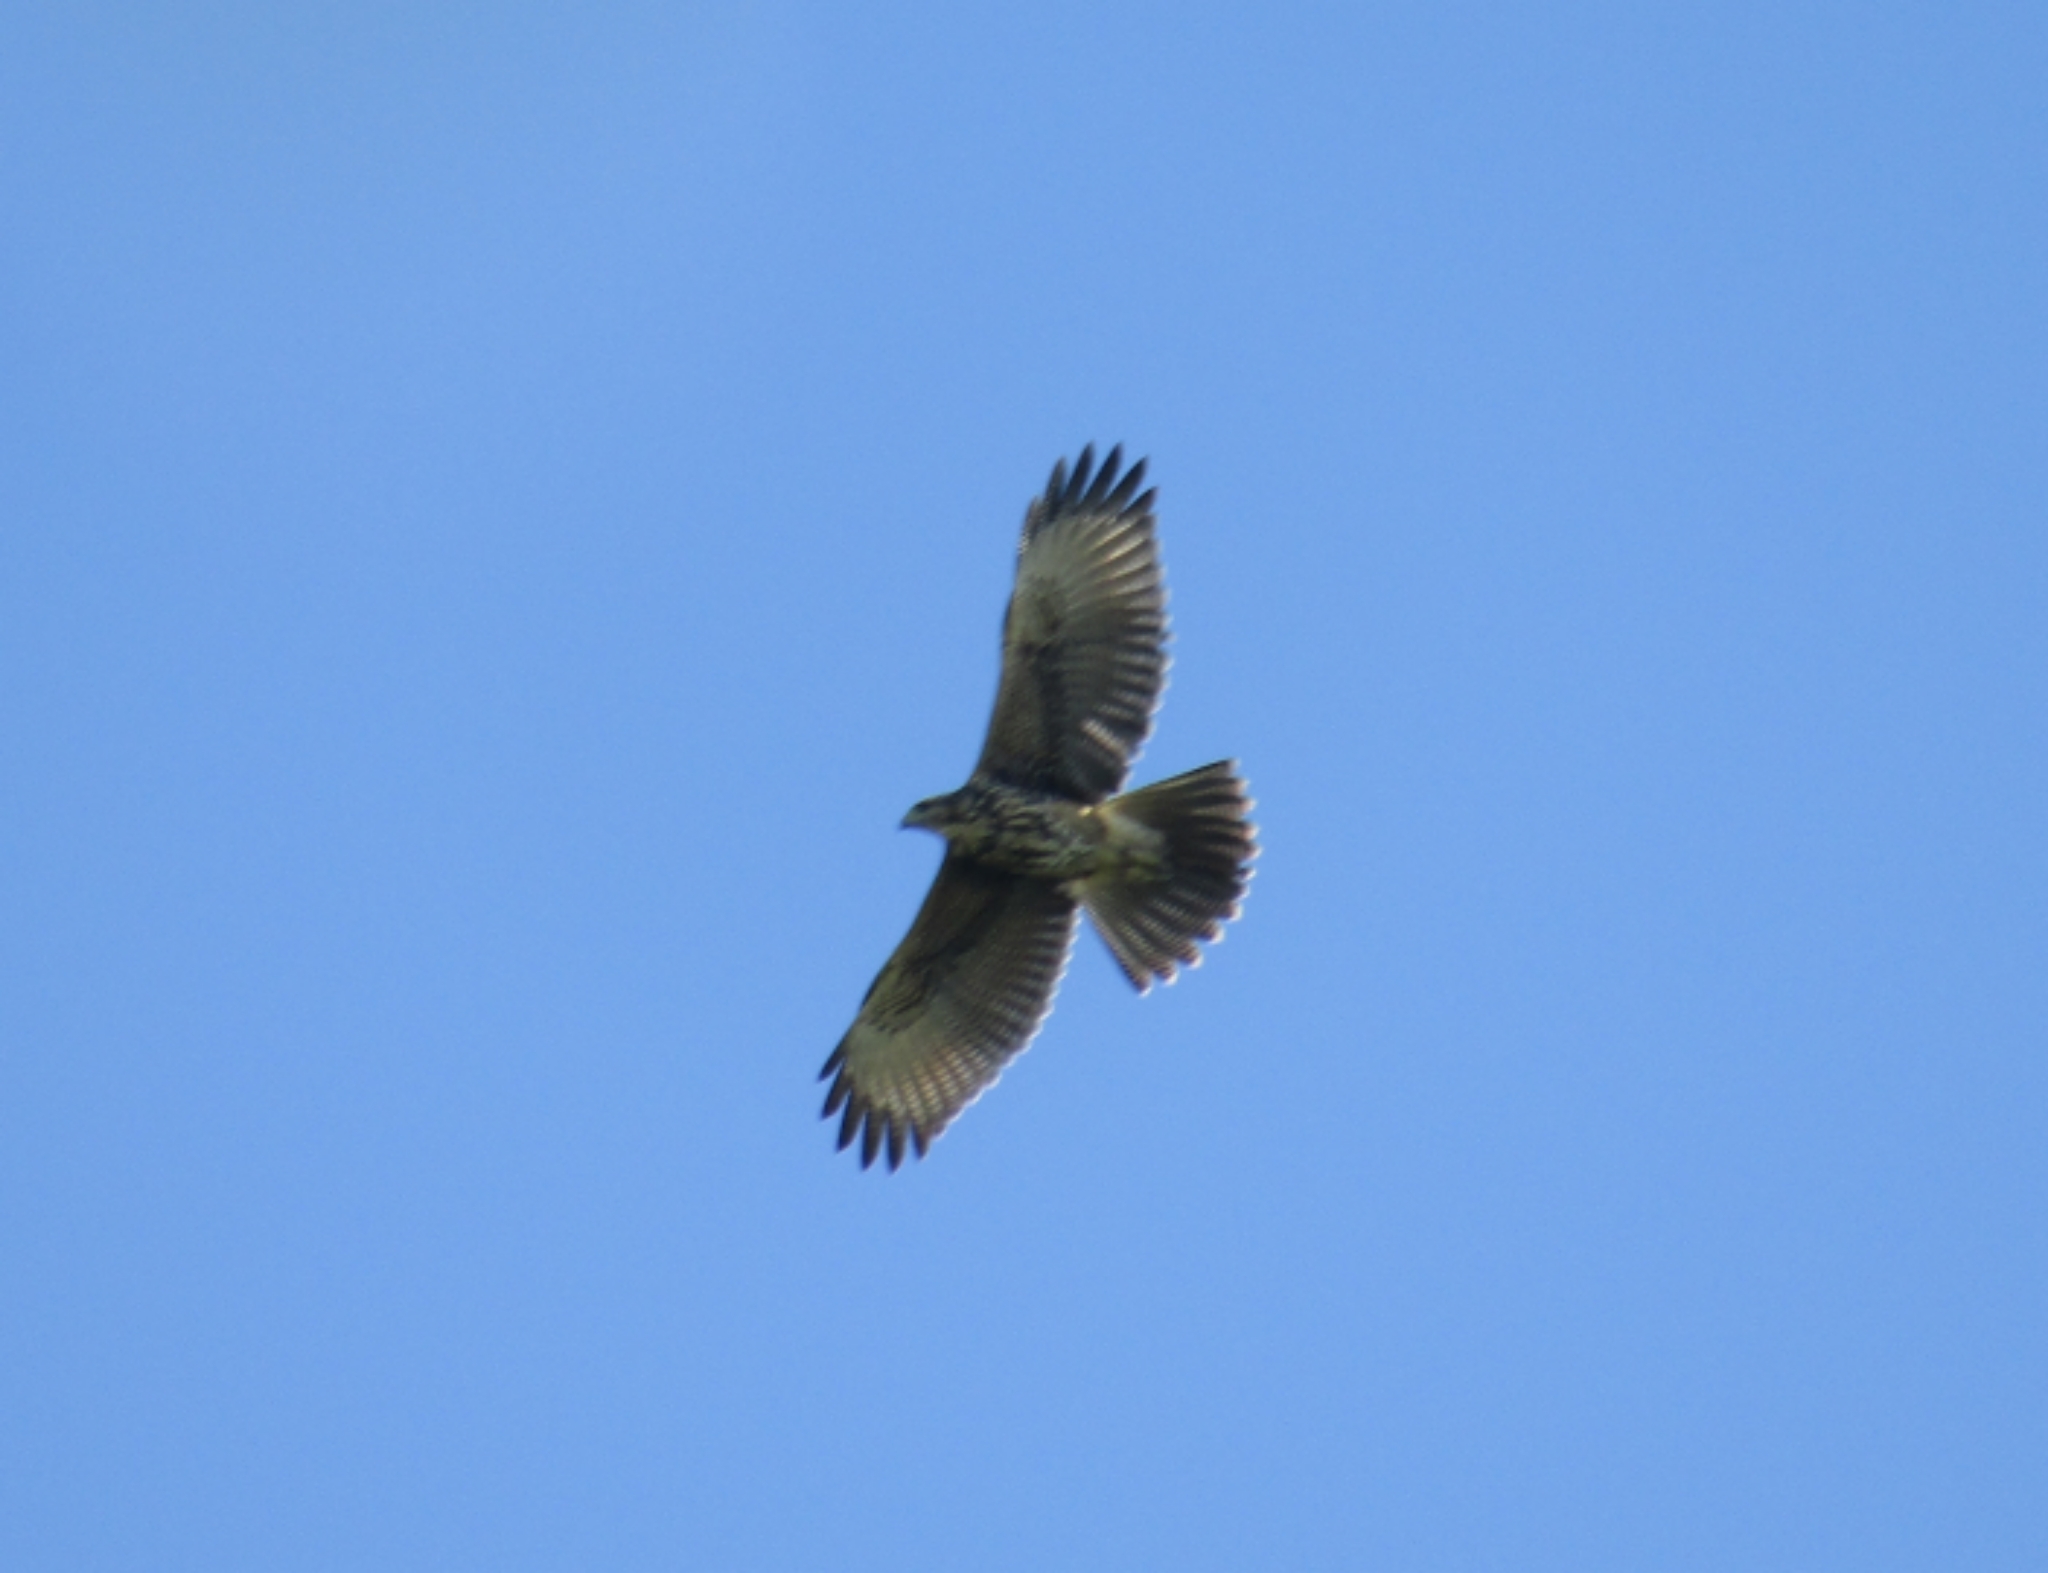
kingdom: Animalia
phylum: Chordata
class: Aves
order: Accipitriformes
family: Accipitridae
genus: Parabuteo
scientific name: Parabuteo unicinctus
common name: Harris's hawk
